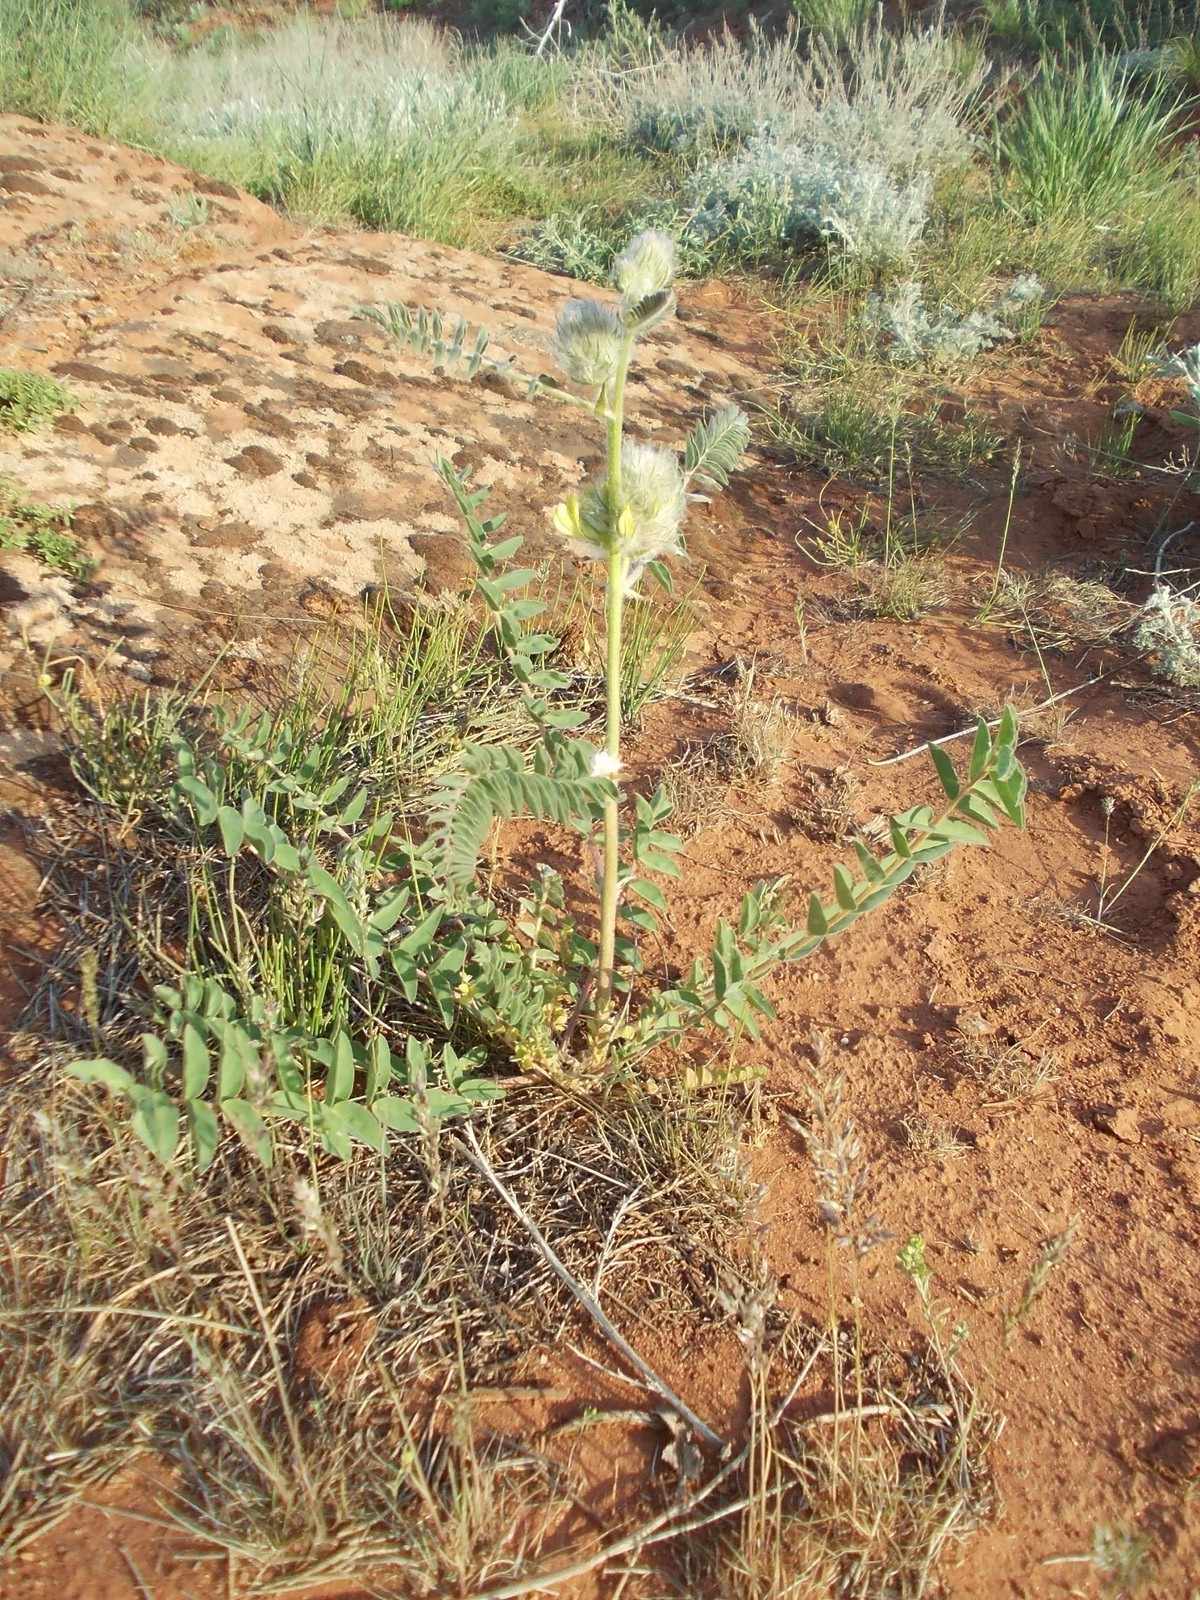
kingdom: Plantae
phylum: Tracheophyta
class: Magnoliopsida
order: Fabales
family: Fabaceae
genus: Astragalus
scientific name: Astragalus vulpinus
